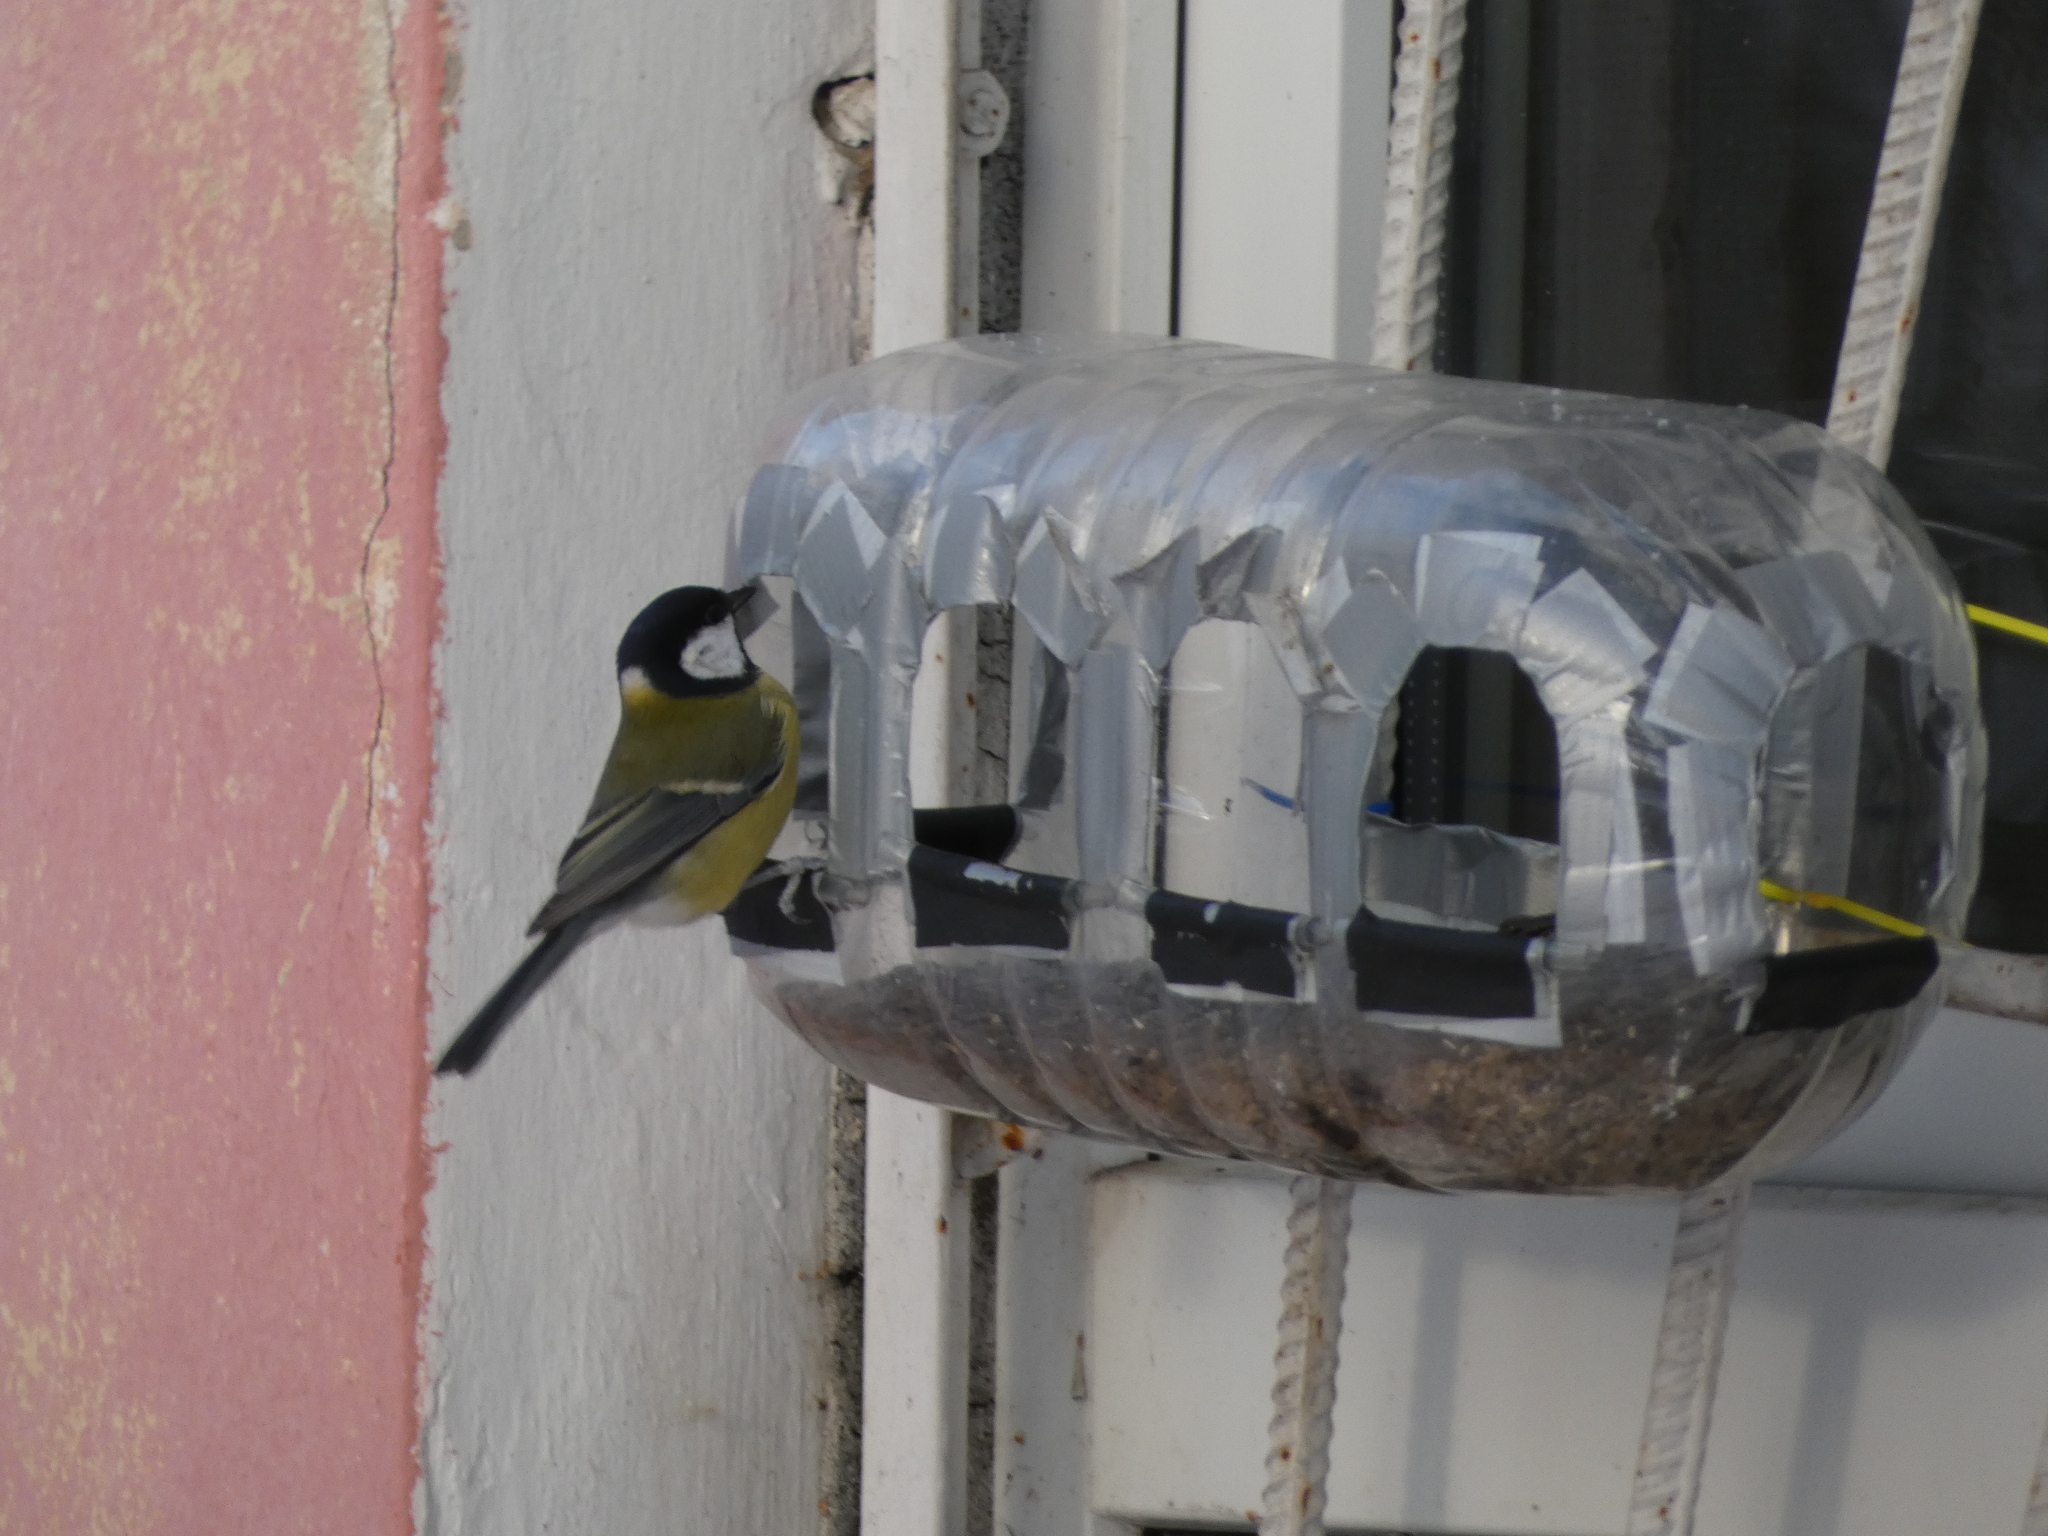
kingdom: Animalia
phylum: Chordata
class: Aves
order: Passeriformes
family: Paridae
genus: Parus
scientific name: Parus major
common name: Great tit
